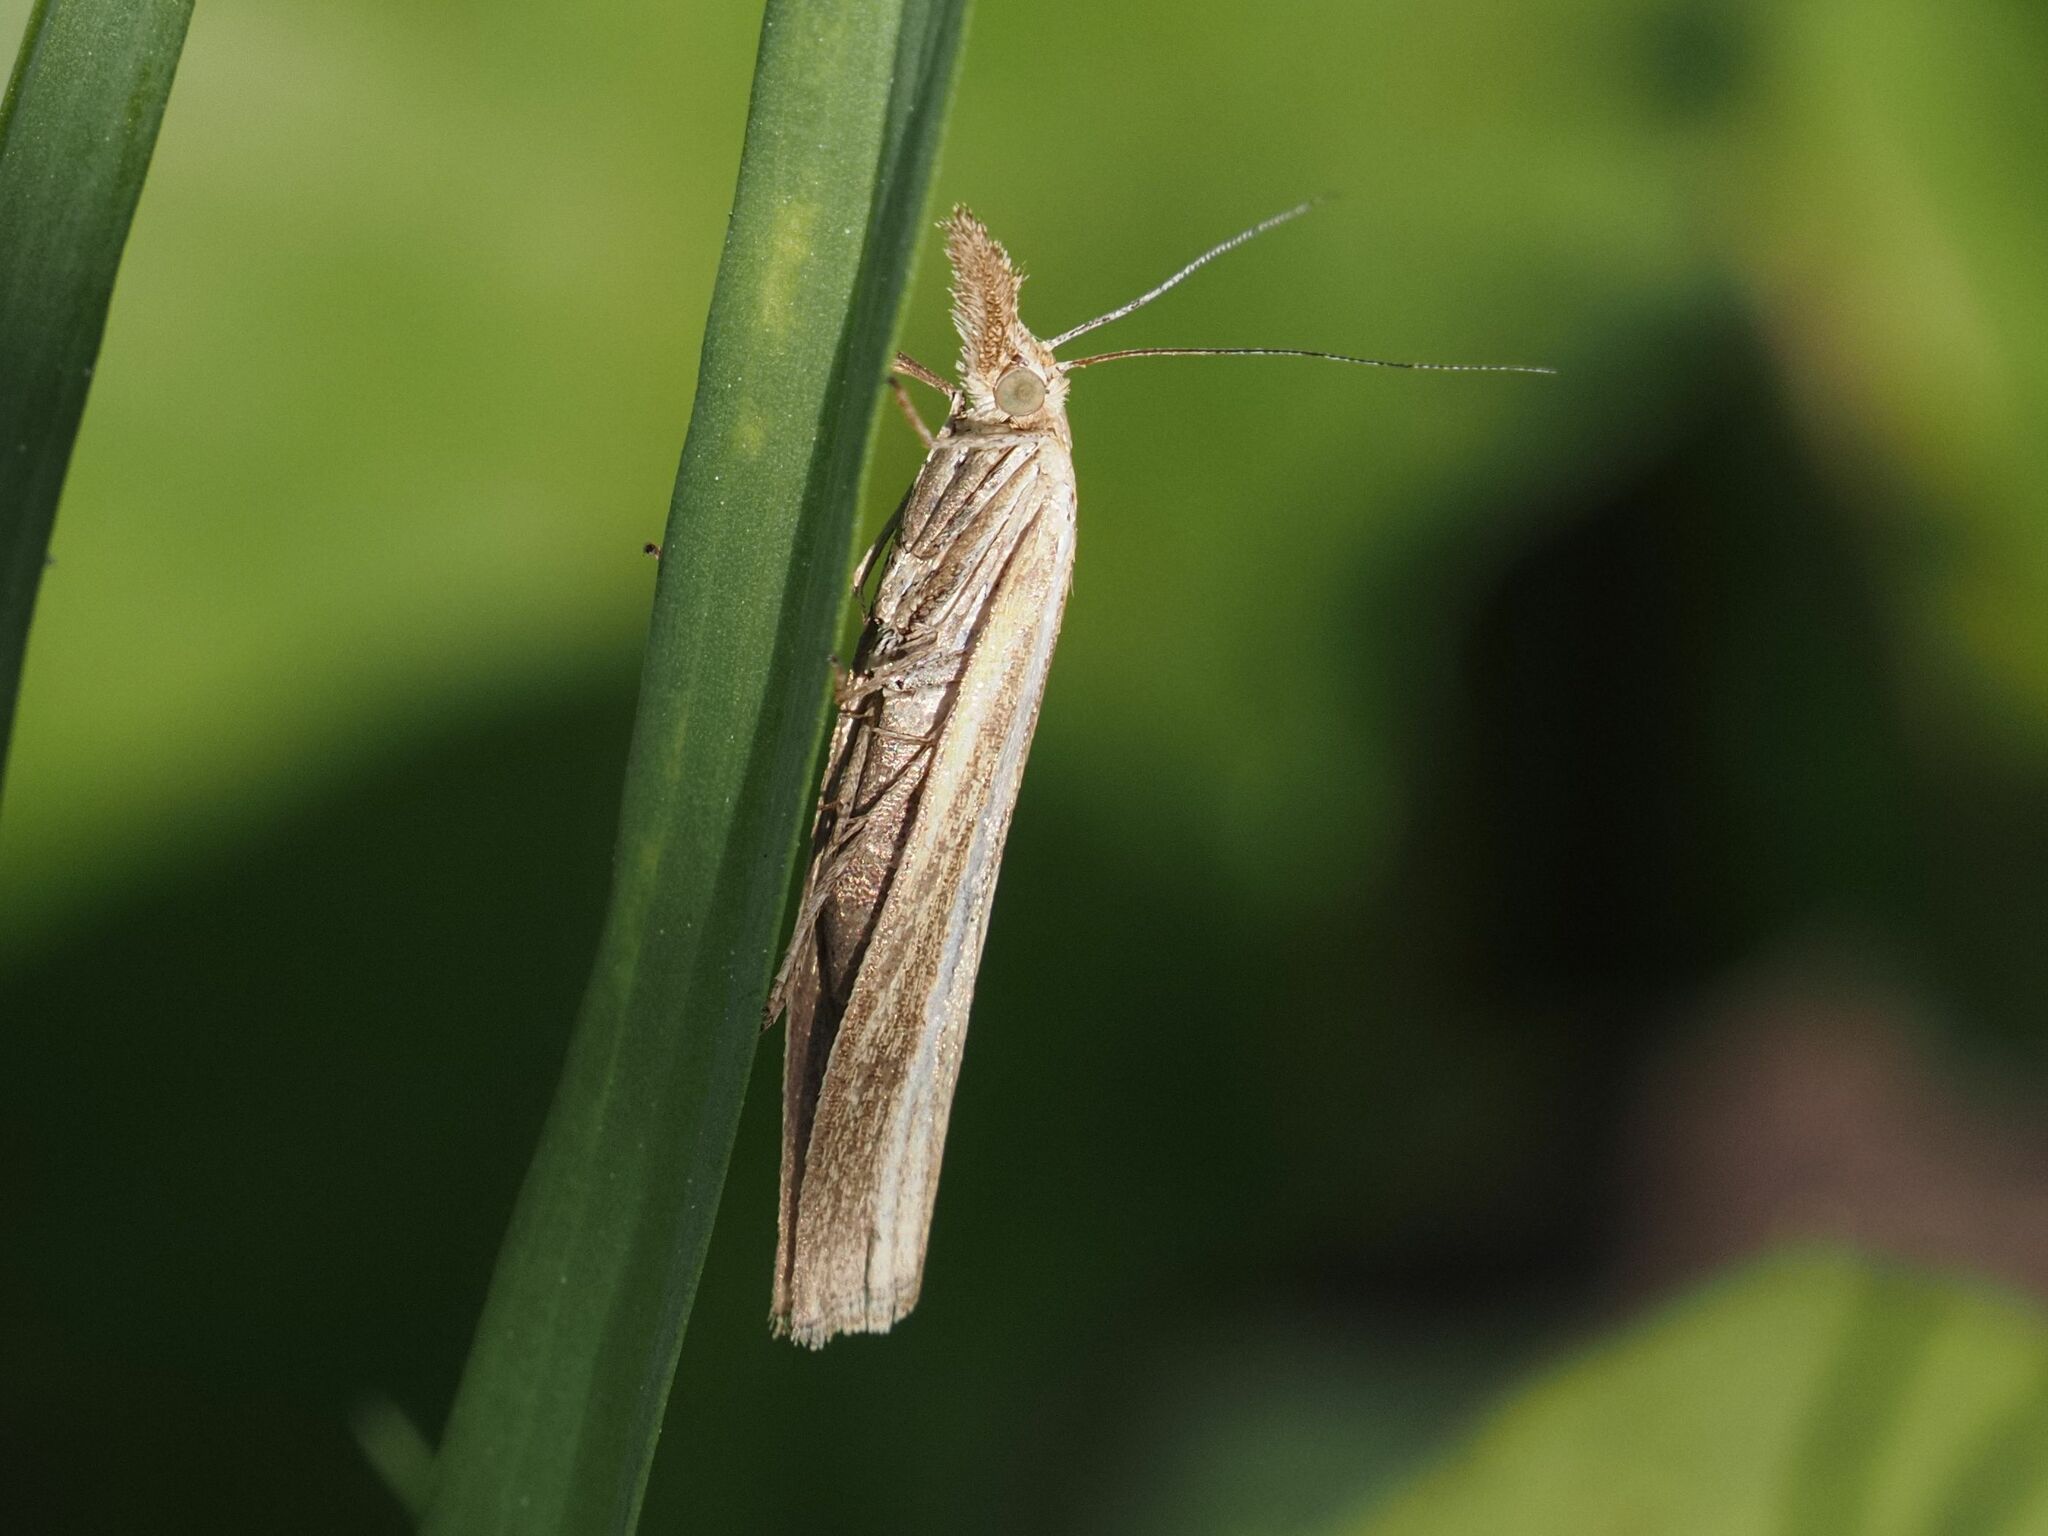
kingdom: Animalia
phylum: Arthropoda
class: Insecta
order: Lepidoptera
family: Crambidae
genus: Agriphila
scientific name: Agriphila tristellus
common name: Common grass-veneer
